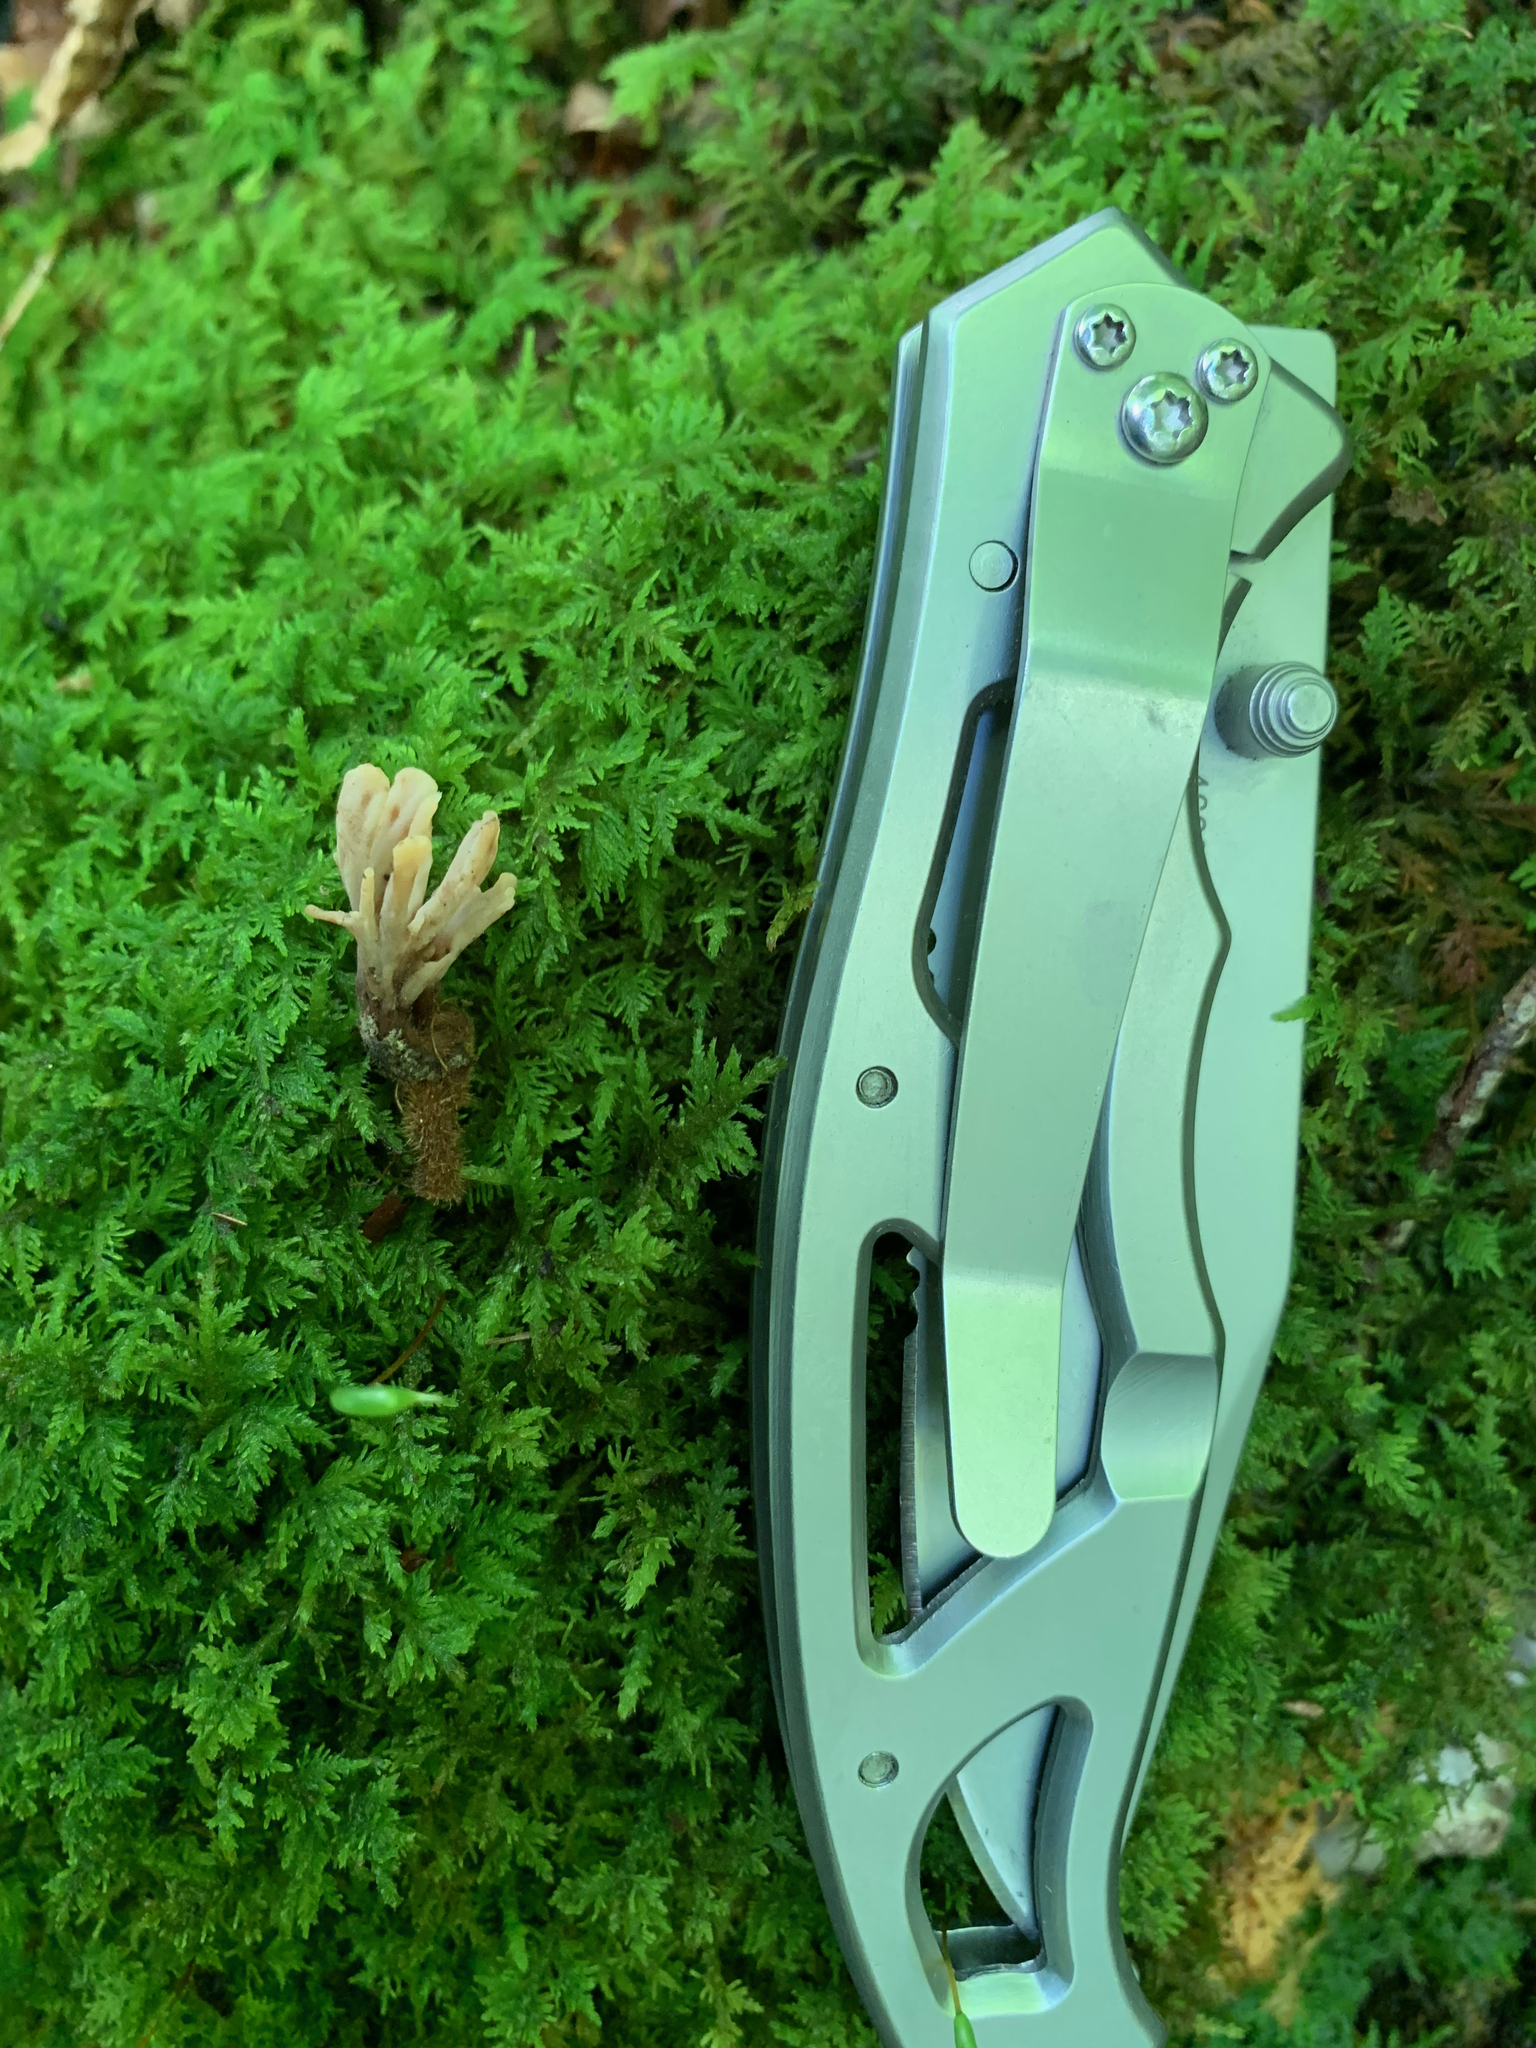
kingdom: Fungi
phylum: Basidiomycota
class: Agaricomycetes
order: Cantharellales
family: Hydnaceae
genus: Clavulina
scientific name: Clavulina castaneipes
